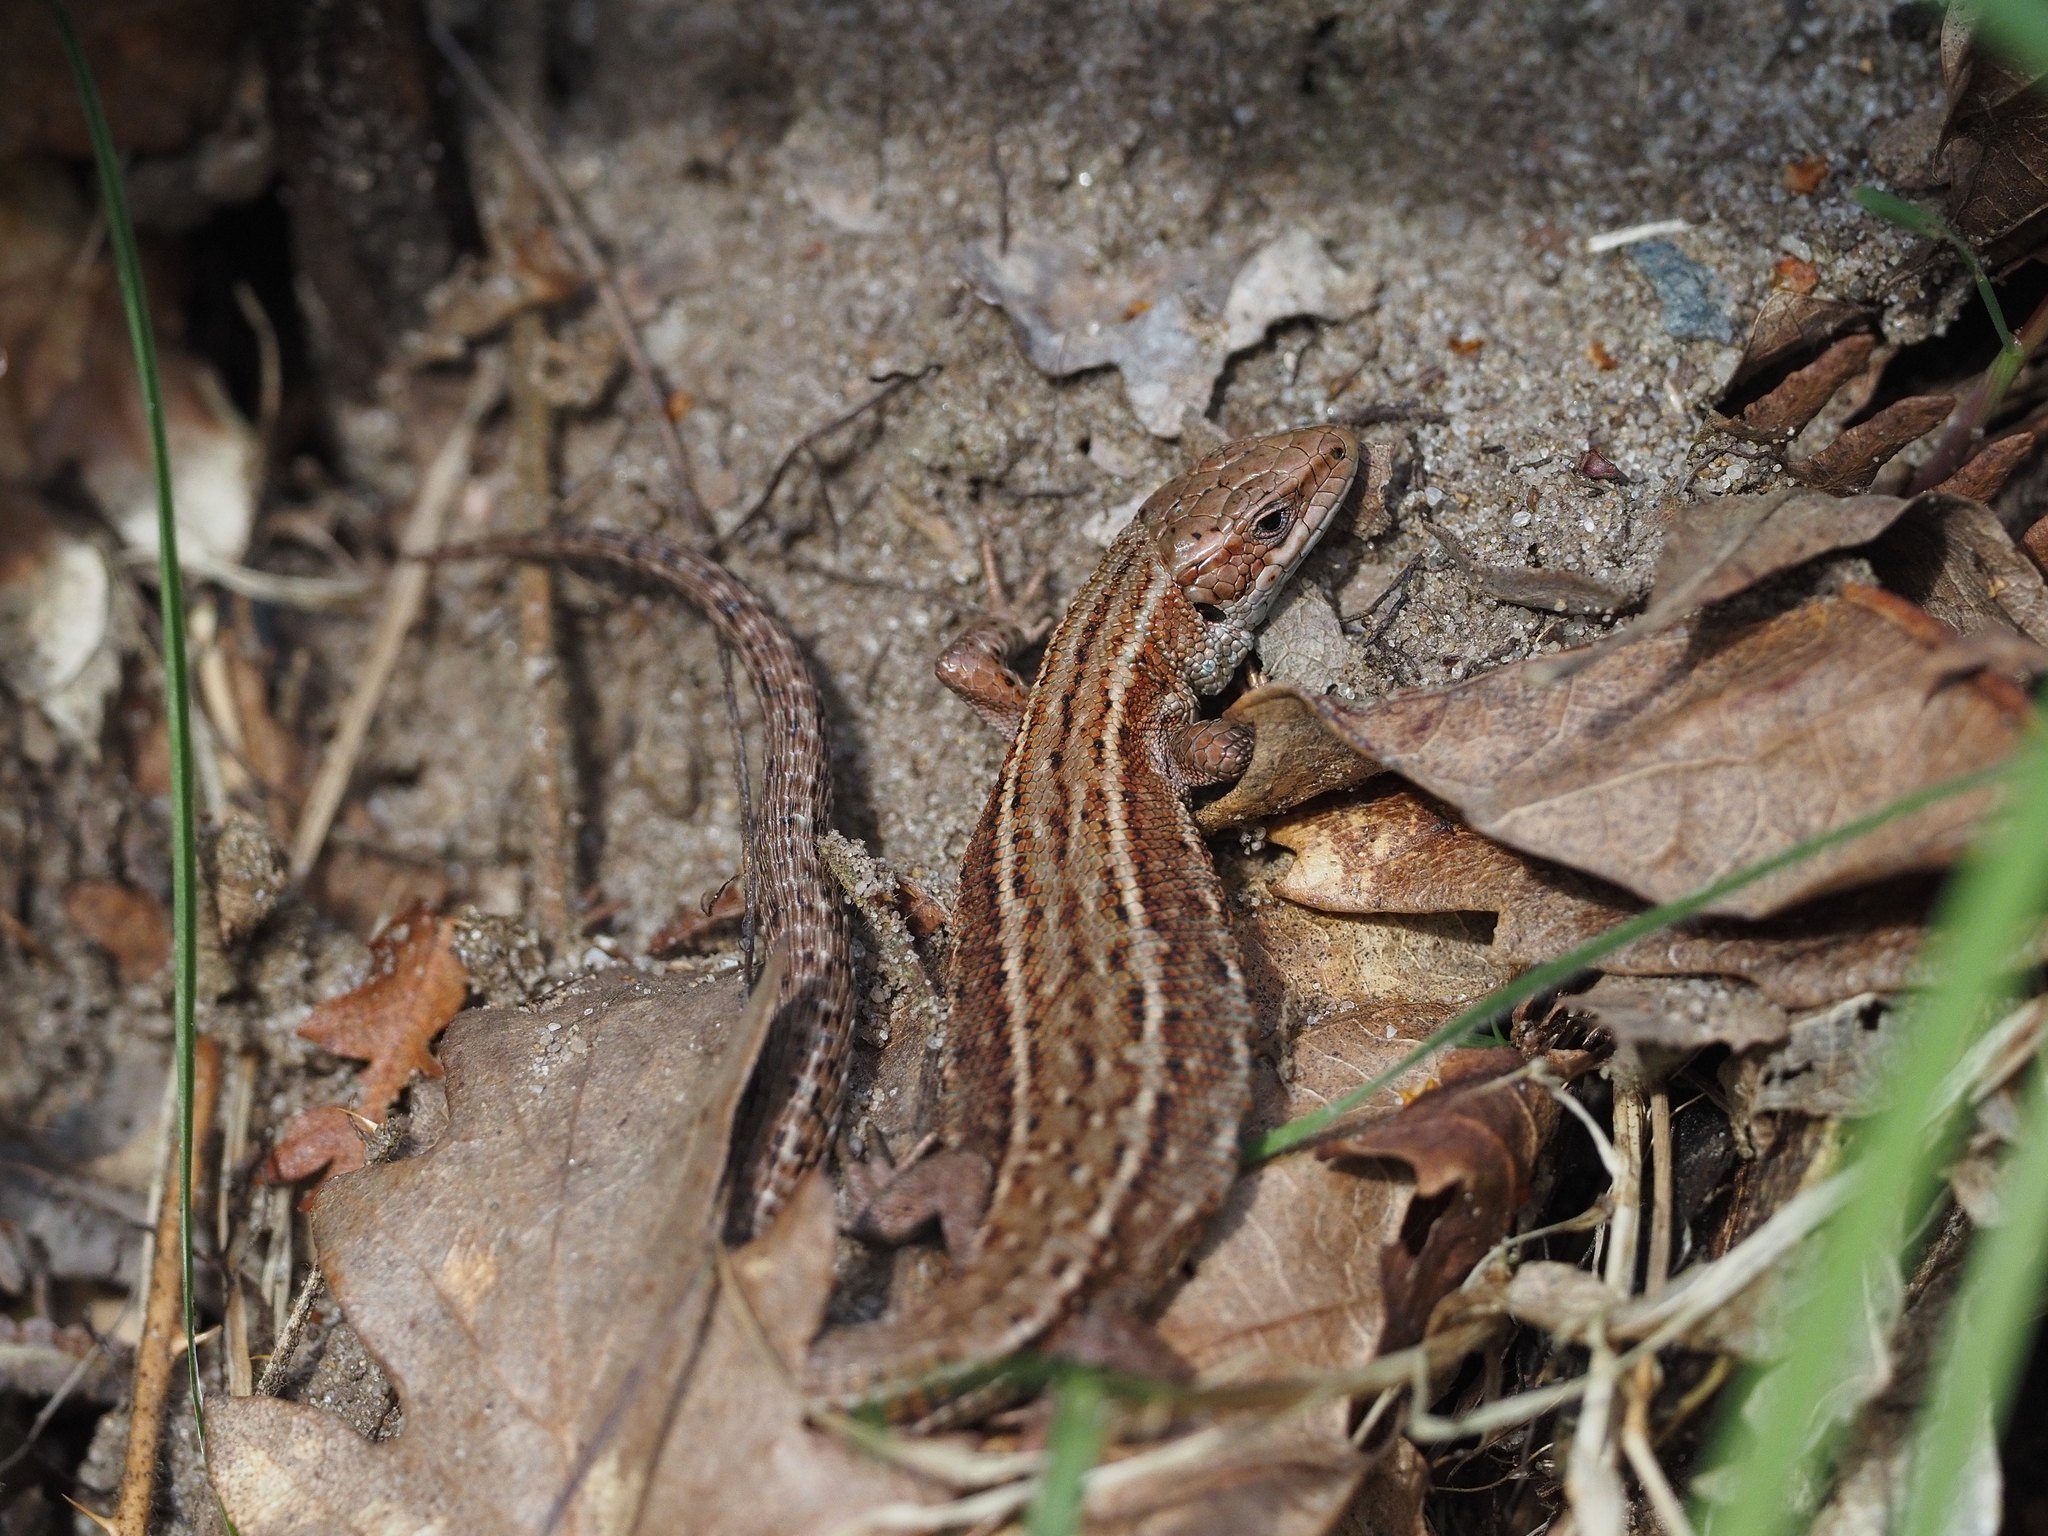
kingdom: Animalia
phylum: Chordata
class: Squamata
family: Lacertidae
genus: Zootoca
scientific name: Zootoca vivipara
